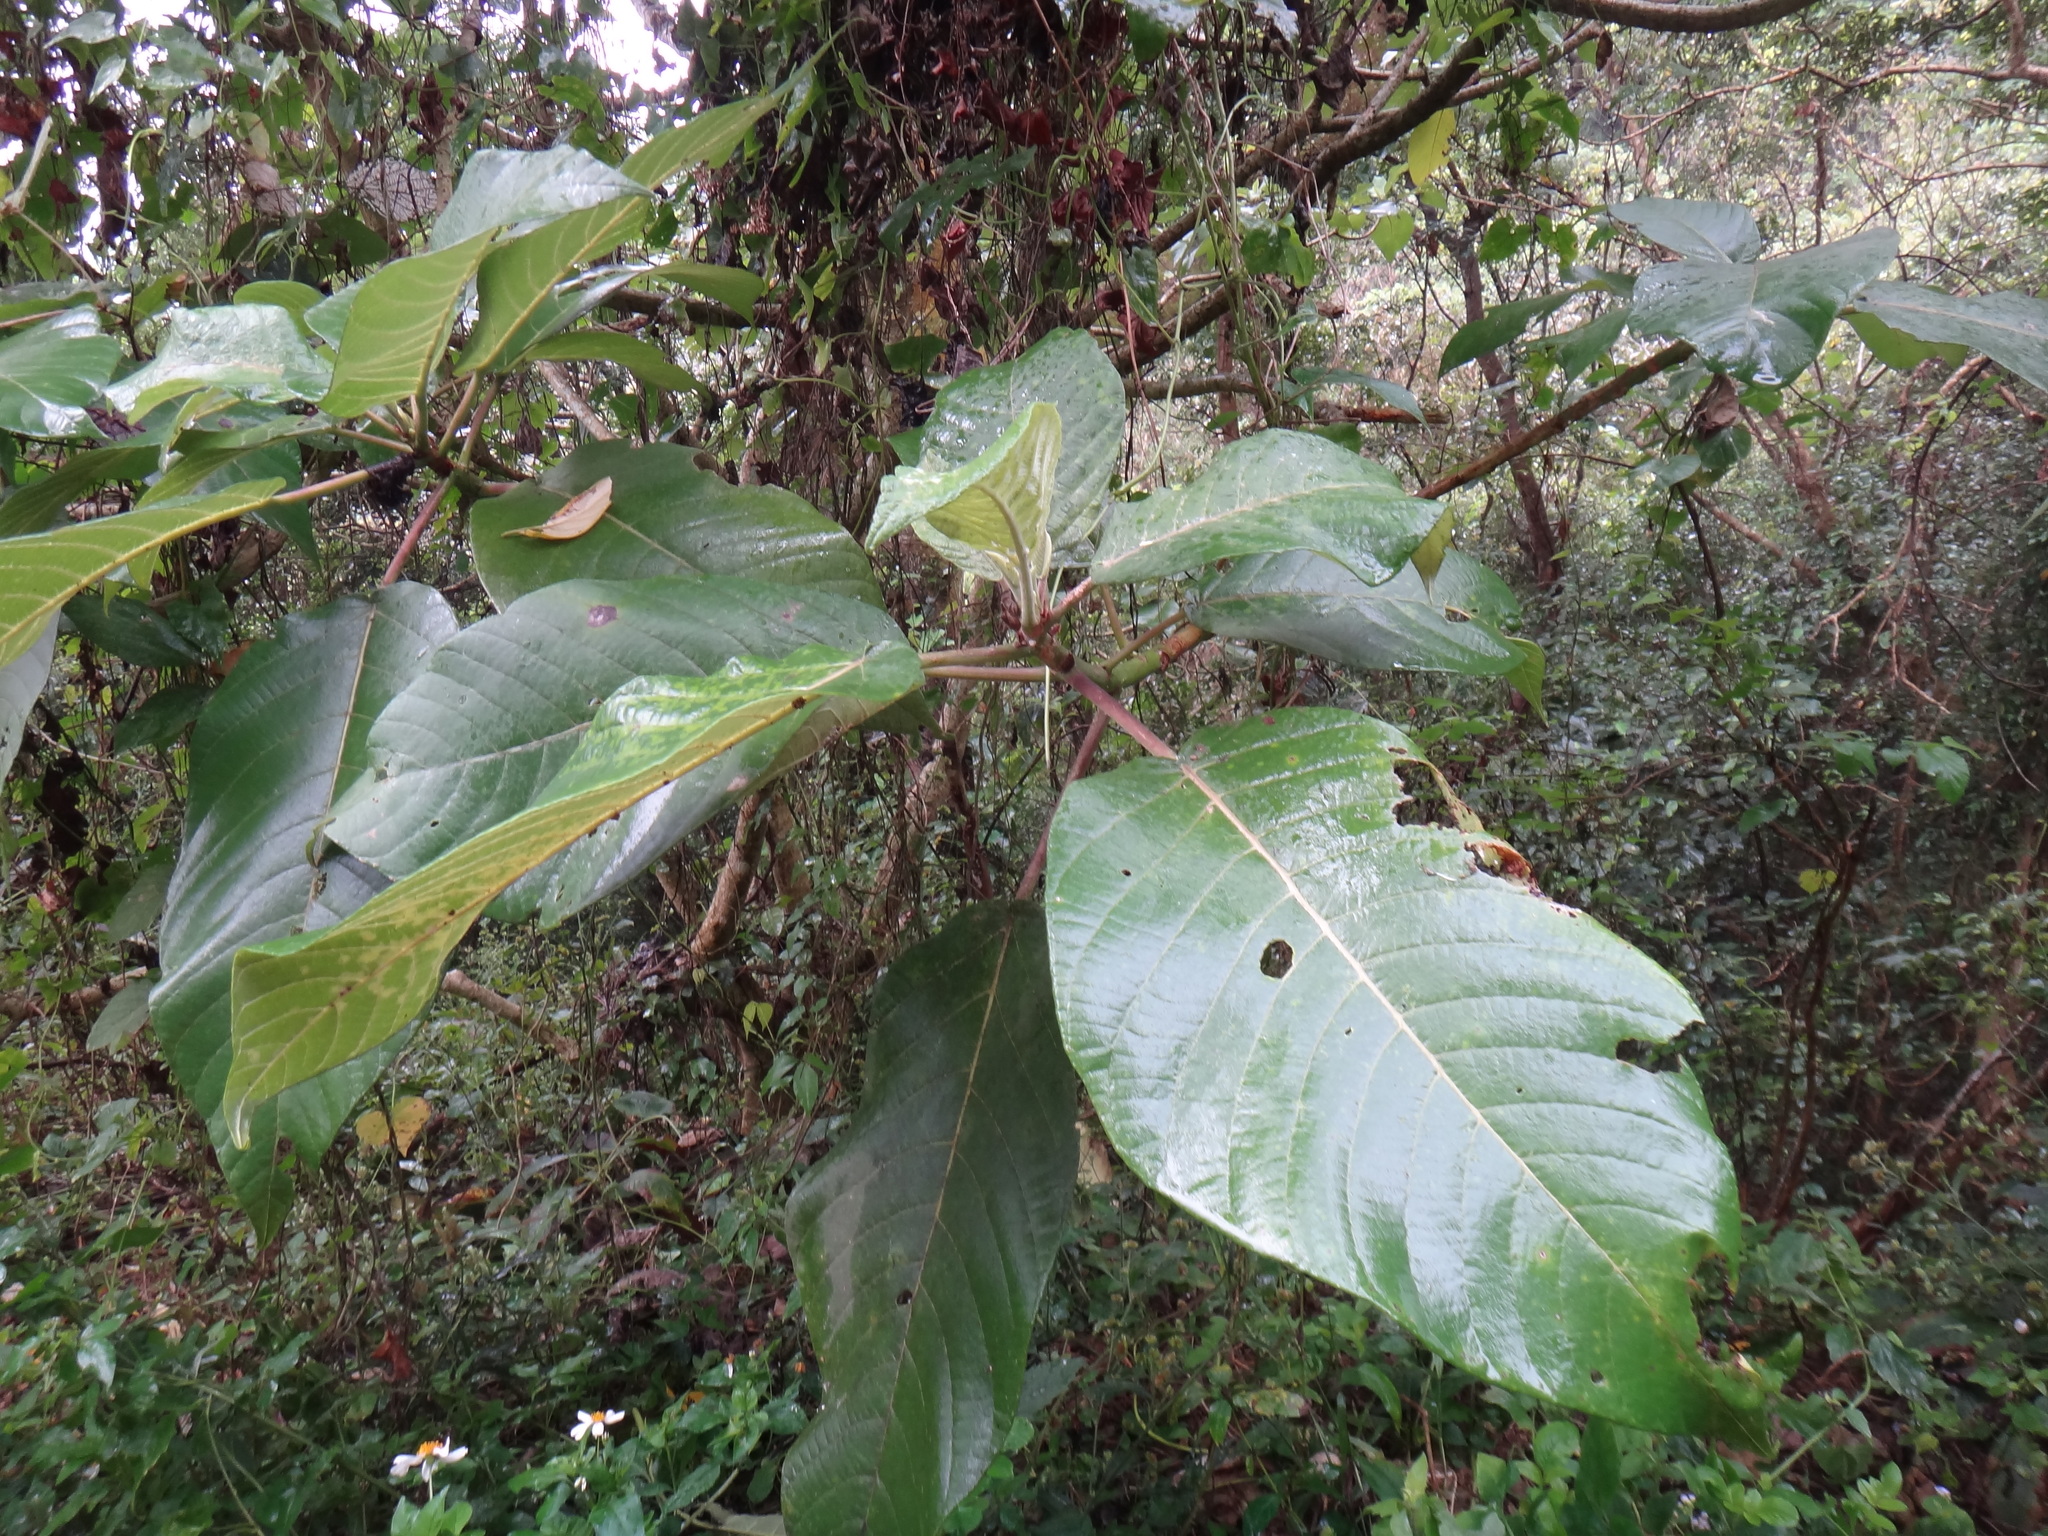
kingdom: Plantae
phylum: Tracheophyta
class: Magnoliopsida
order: Rosales
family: Urticaceae
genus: Dendrocnide
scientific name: Dendrocnide meyeniana
